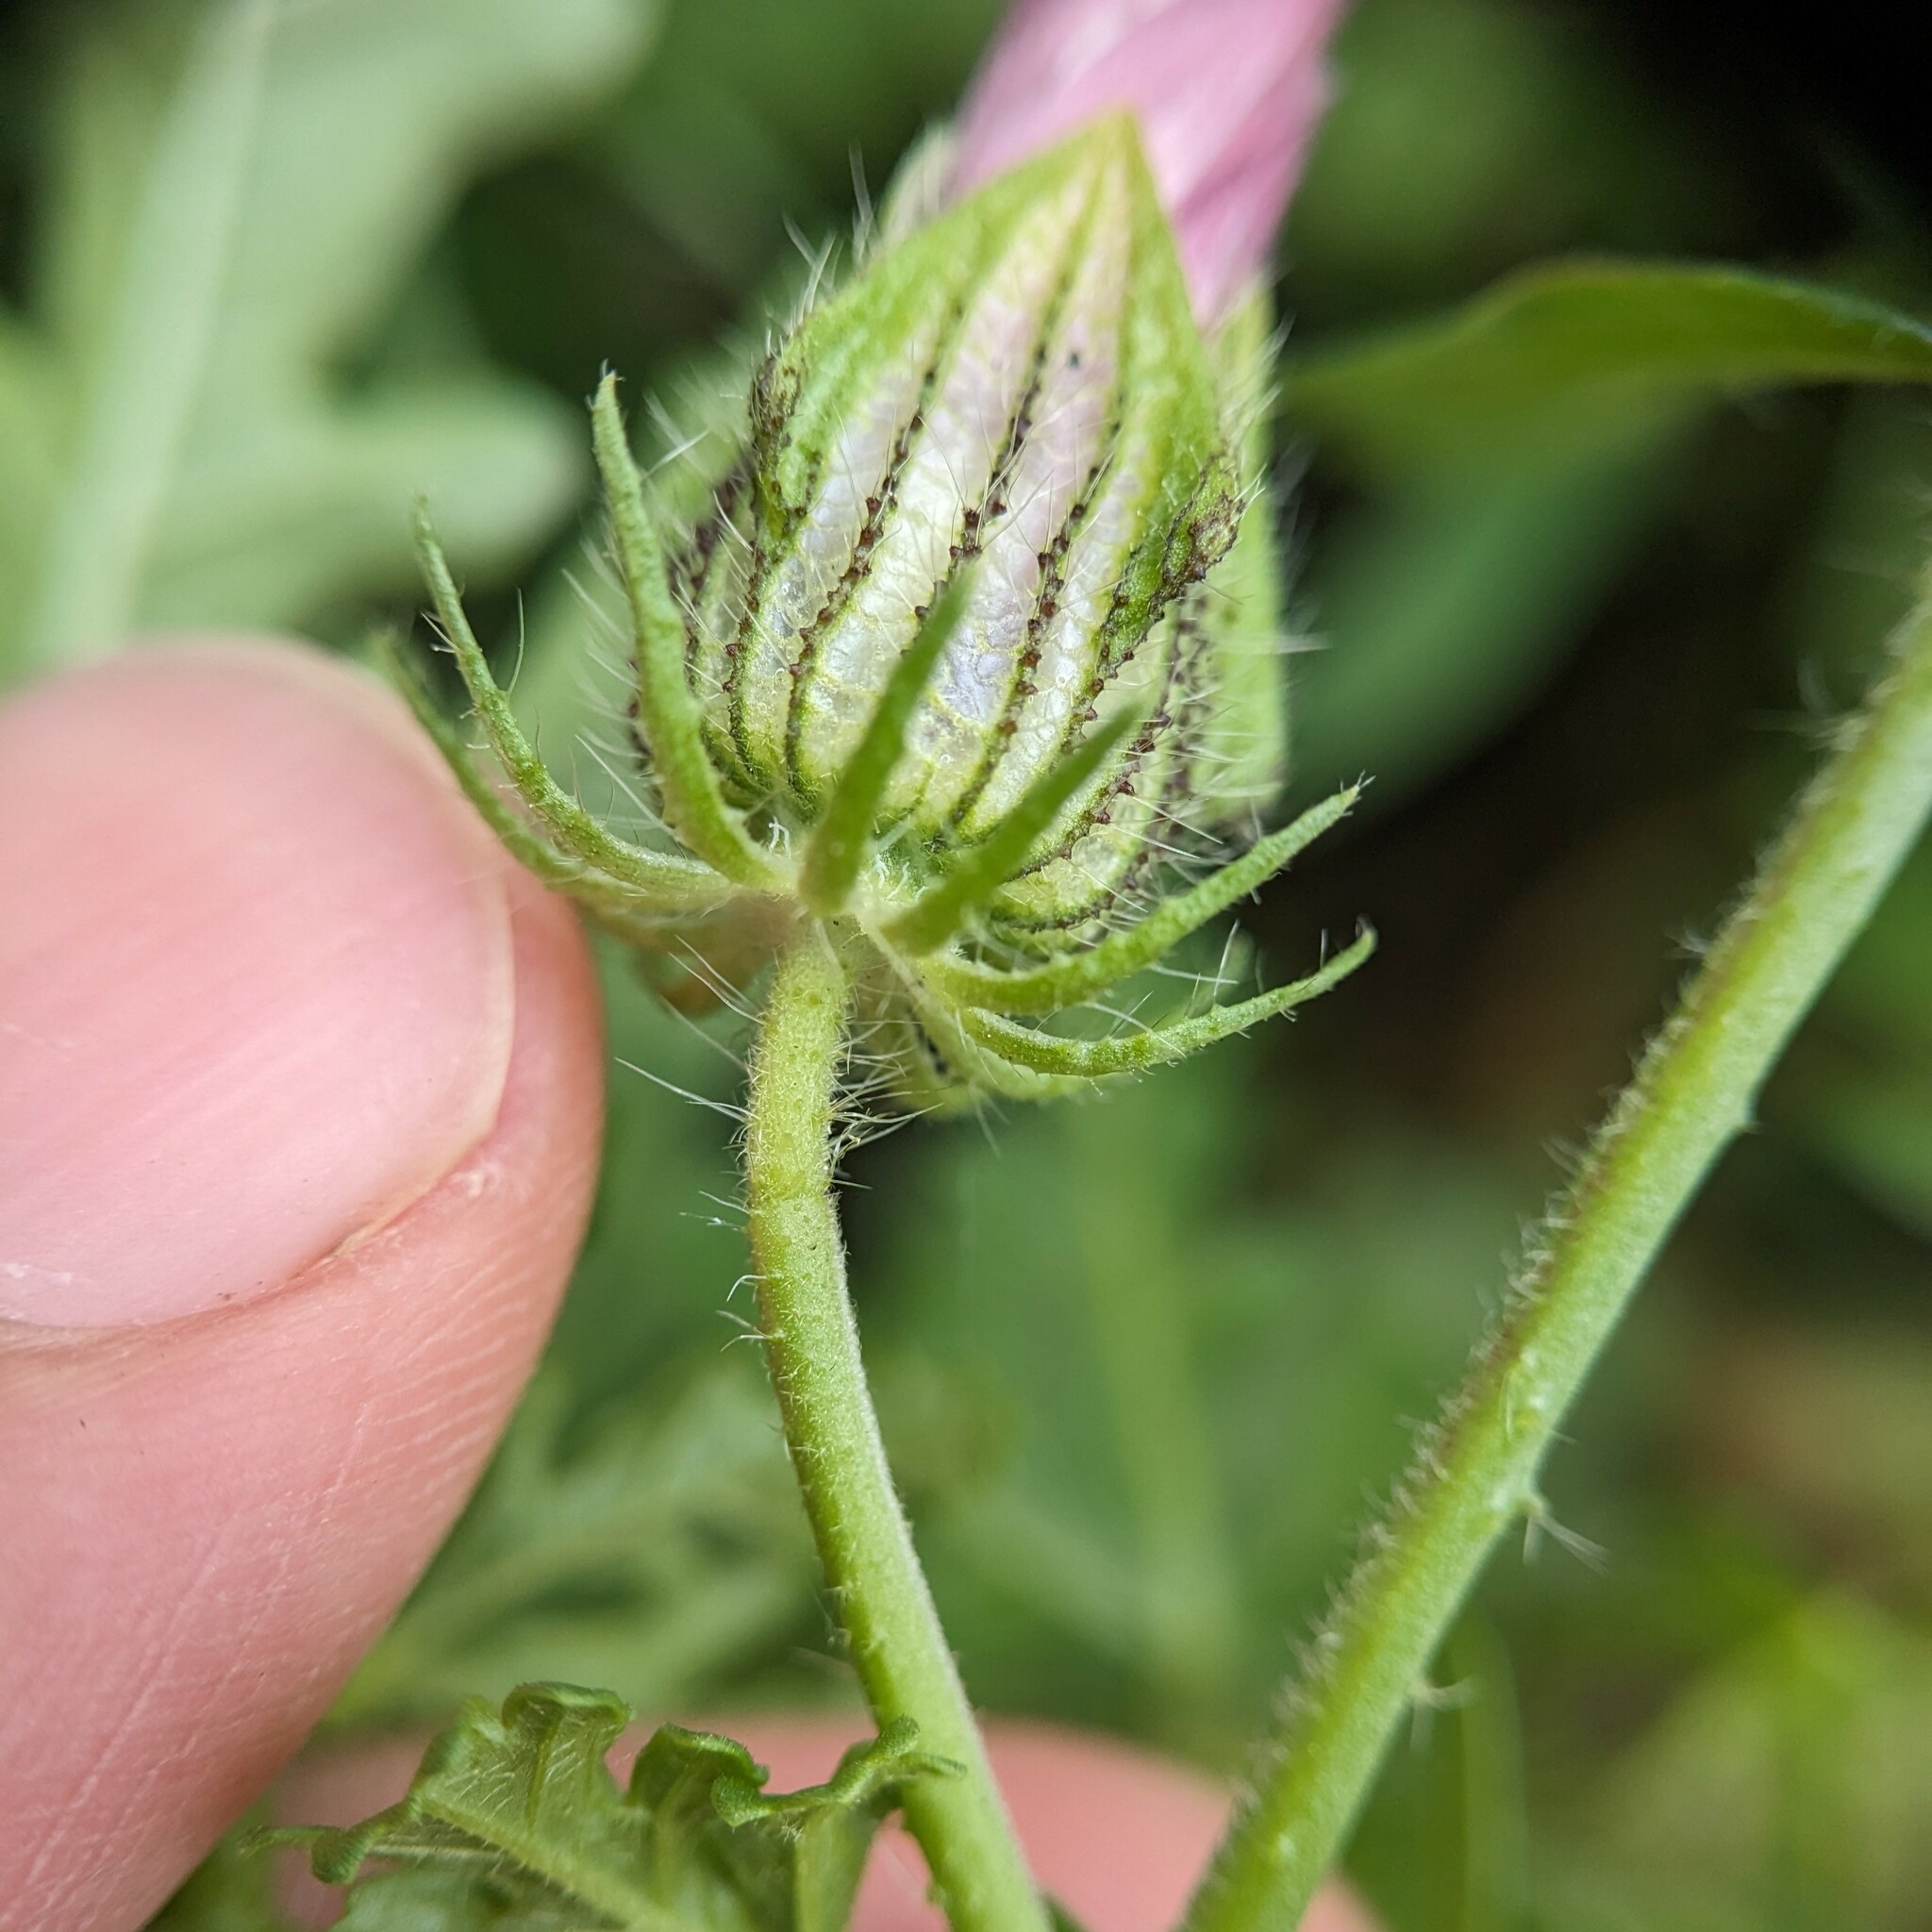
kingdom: Plantae
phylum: Tracheophyta
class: Magnoliopsida
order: Malvales
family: Malvaceae
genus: Hibiscus
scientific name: Hibiscus trionum
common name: Bladder ketmia
